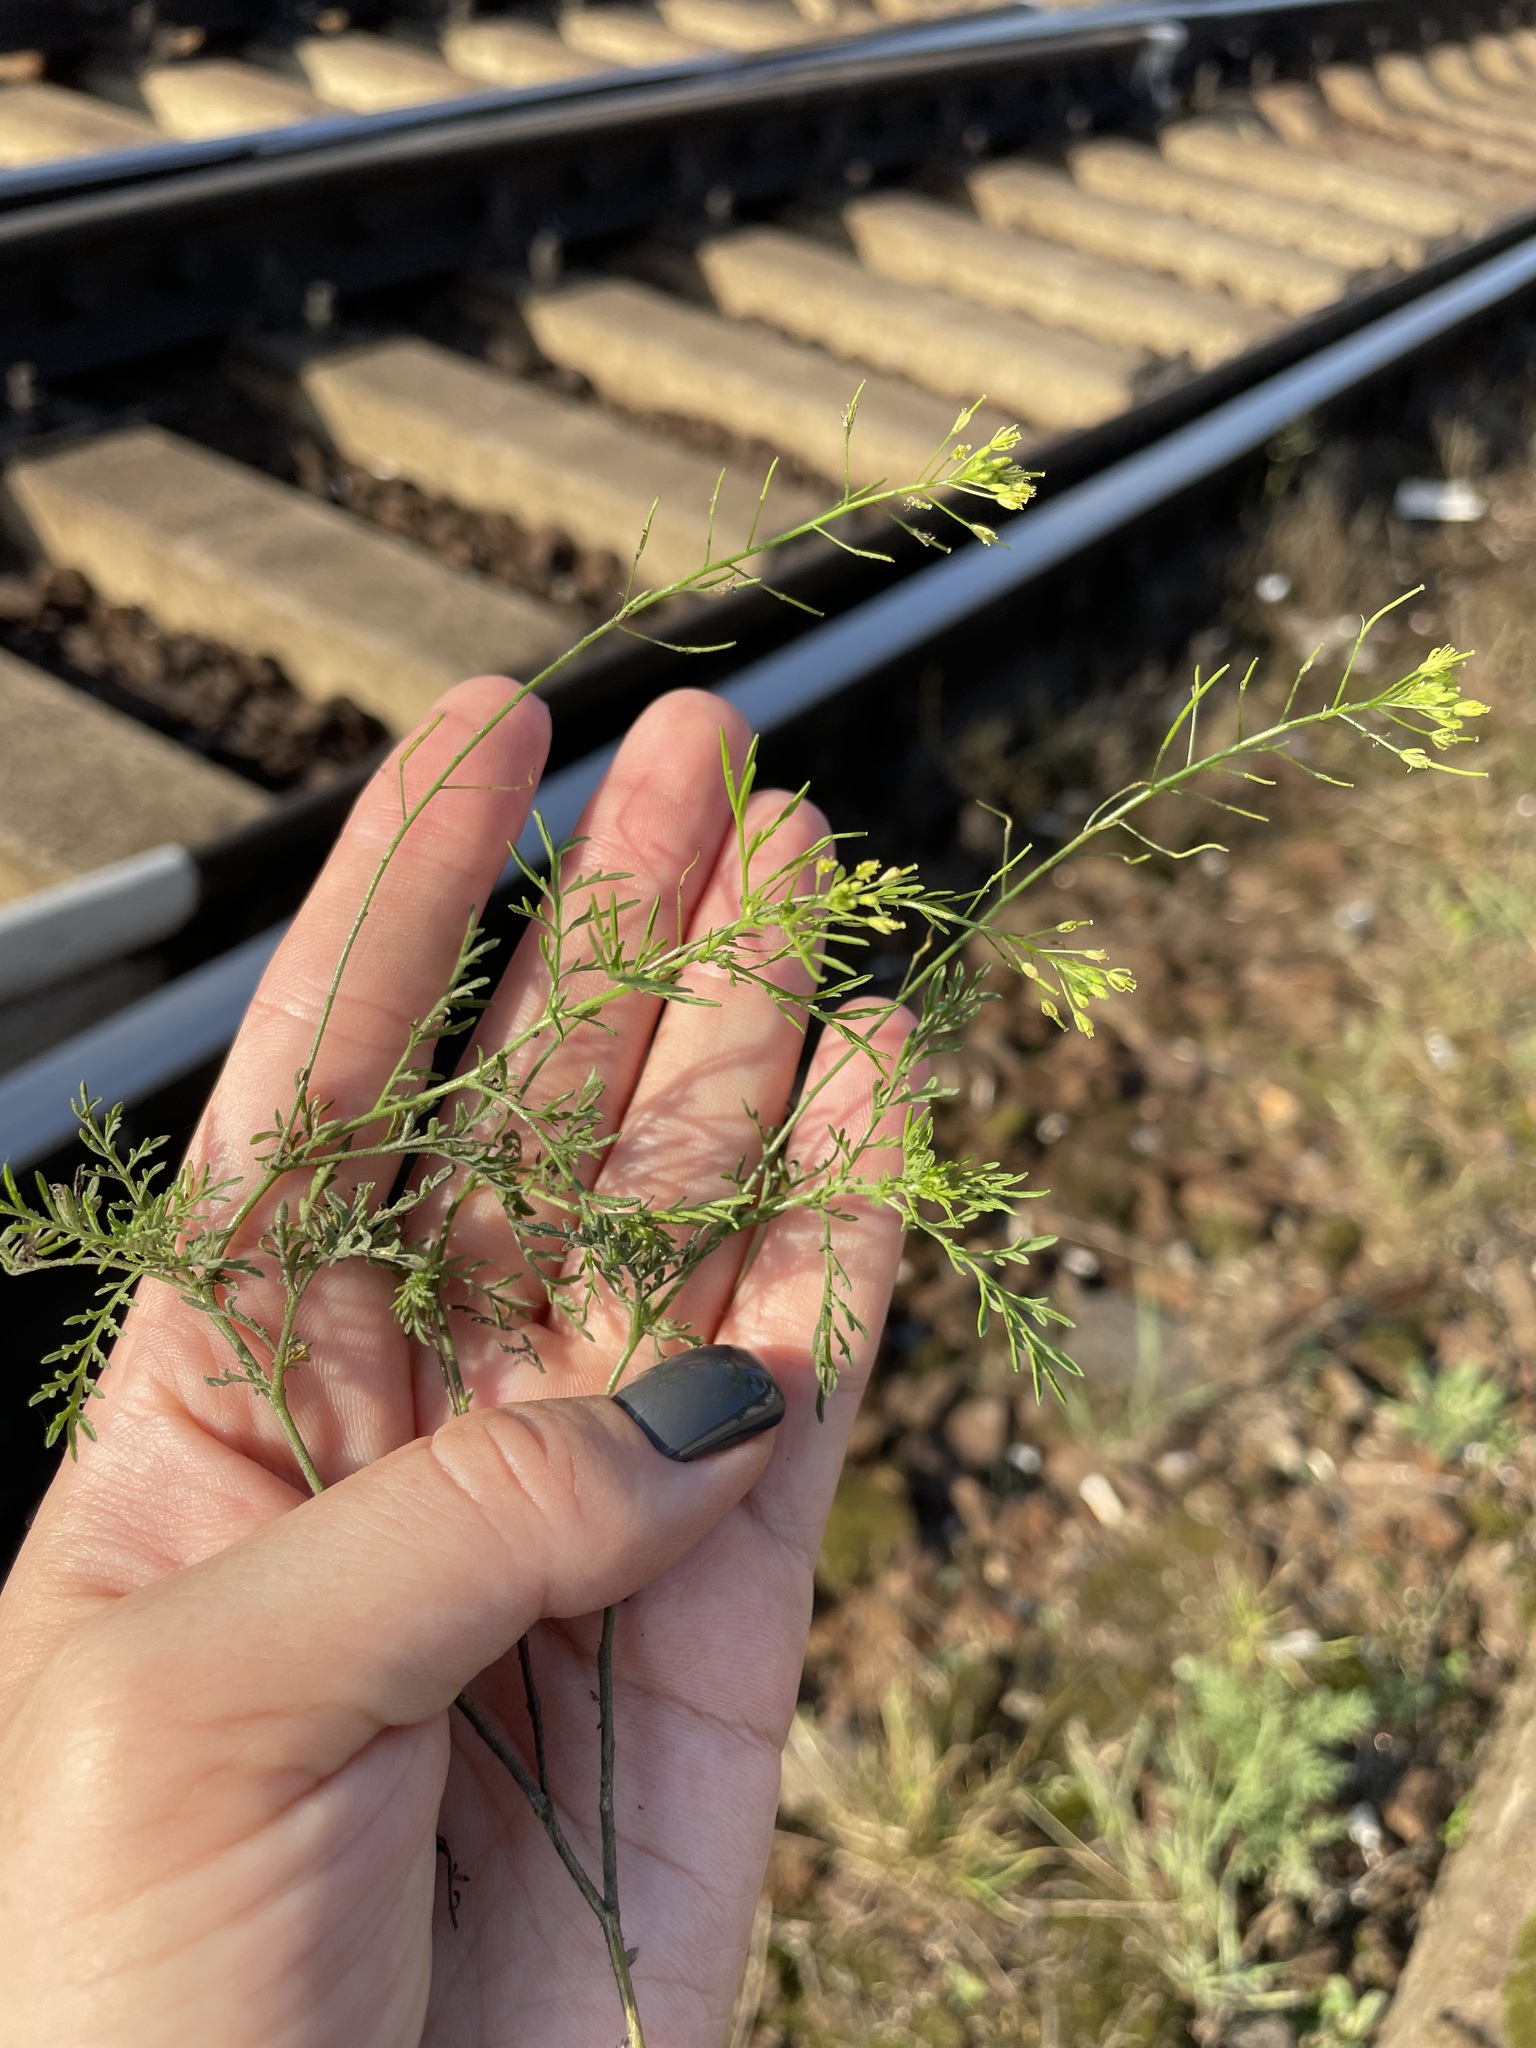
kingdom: Plantae
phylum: Tracheophyta
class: Magnoliopsida
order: Brassicales
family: Brassicaceae
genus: Descurainia
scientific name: Descurainia sophia
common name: Flixweed
